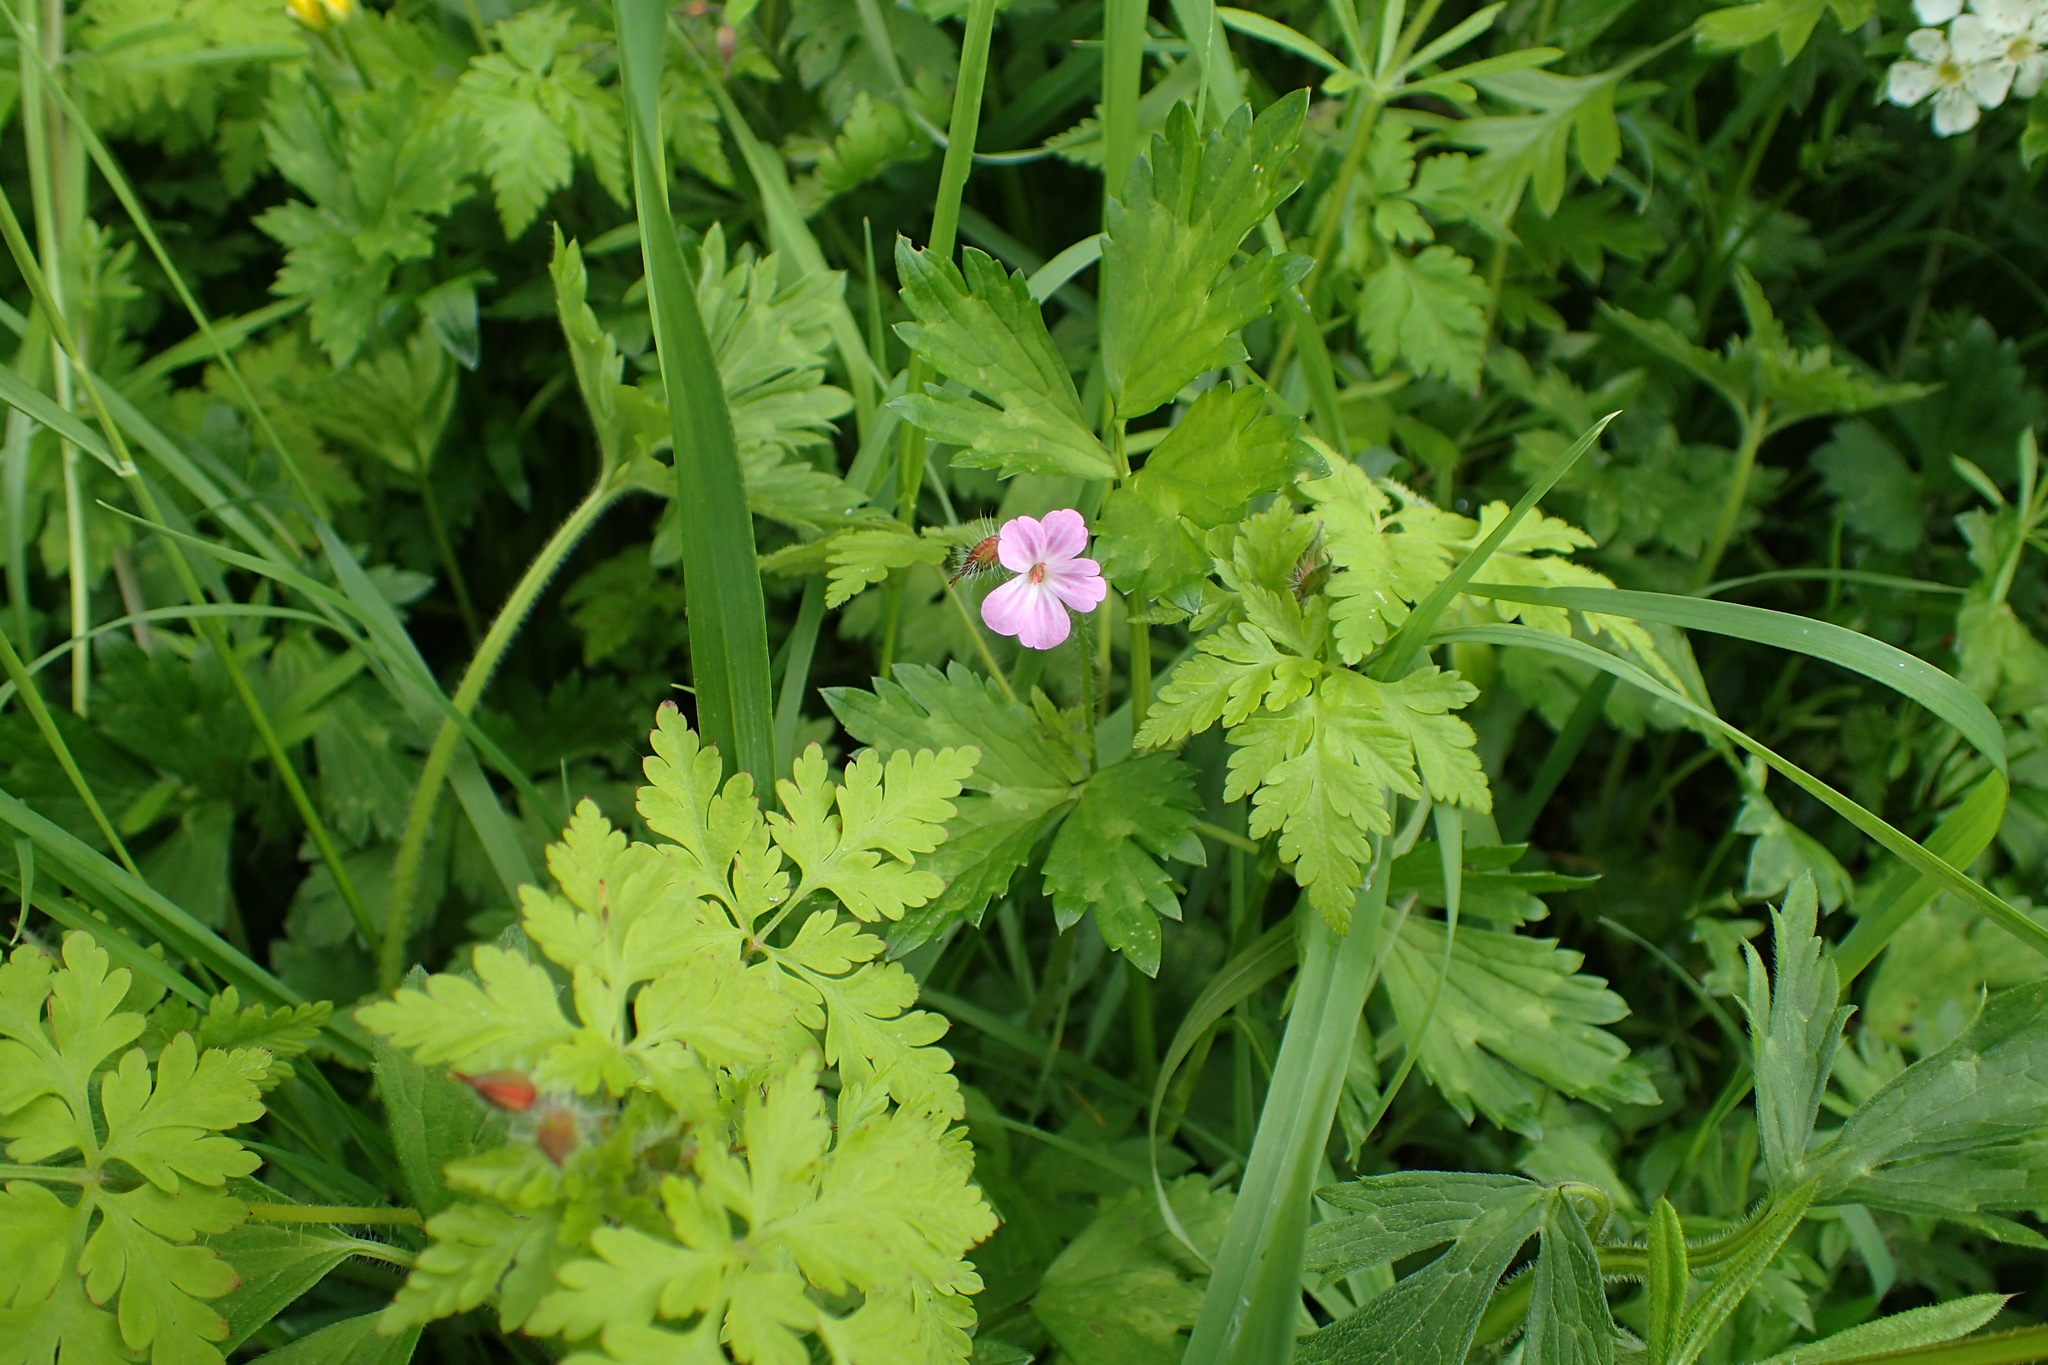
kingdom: Plantae
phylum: Tracheophyta
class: Magnoliopsida
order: Geraniales
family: Geraniaceae
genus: Geranium
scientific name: Geranium robertianum
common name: Herb-robert
